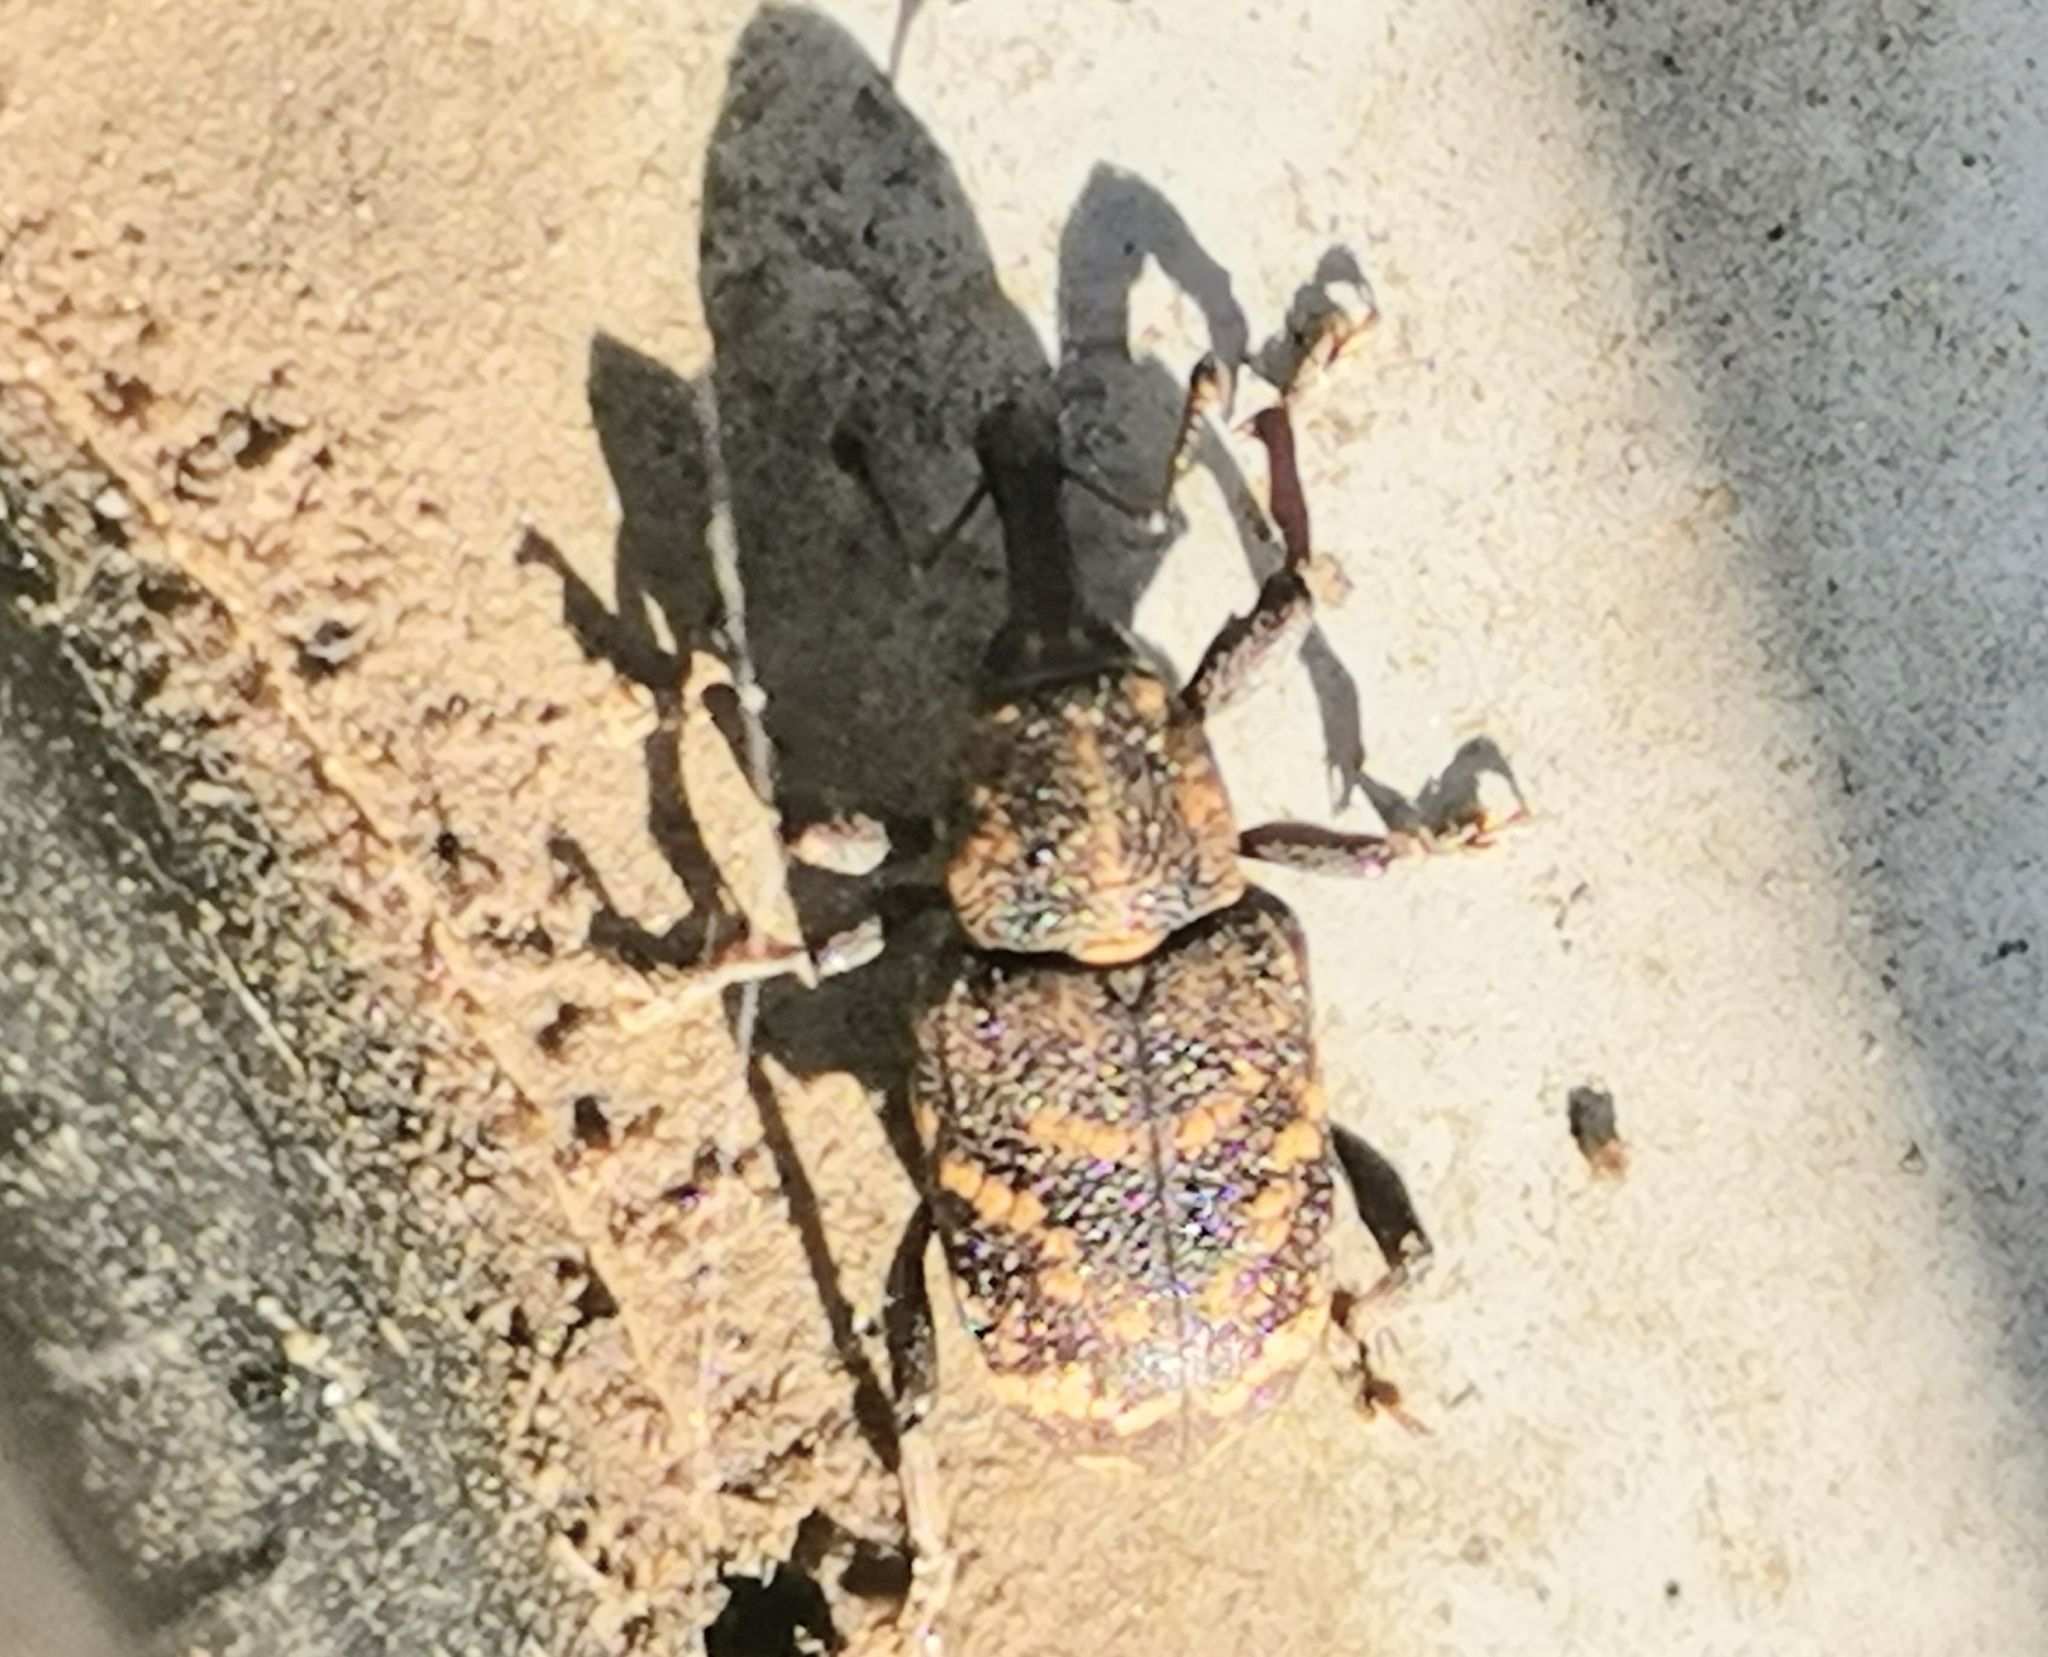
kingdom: Animalia
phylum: Arthropoda
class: Insecta
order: Coleoptera
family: Curculionidae
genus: Hylobius
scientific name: Hylobius abietis
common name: Large pine weevil
